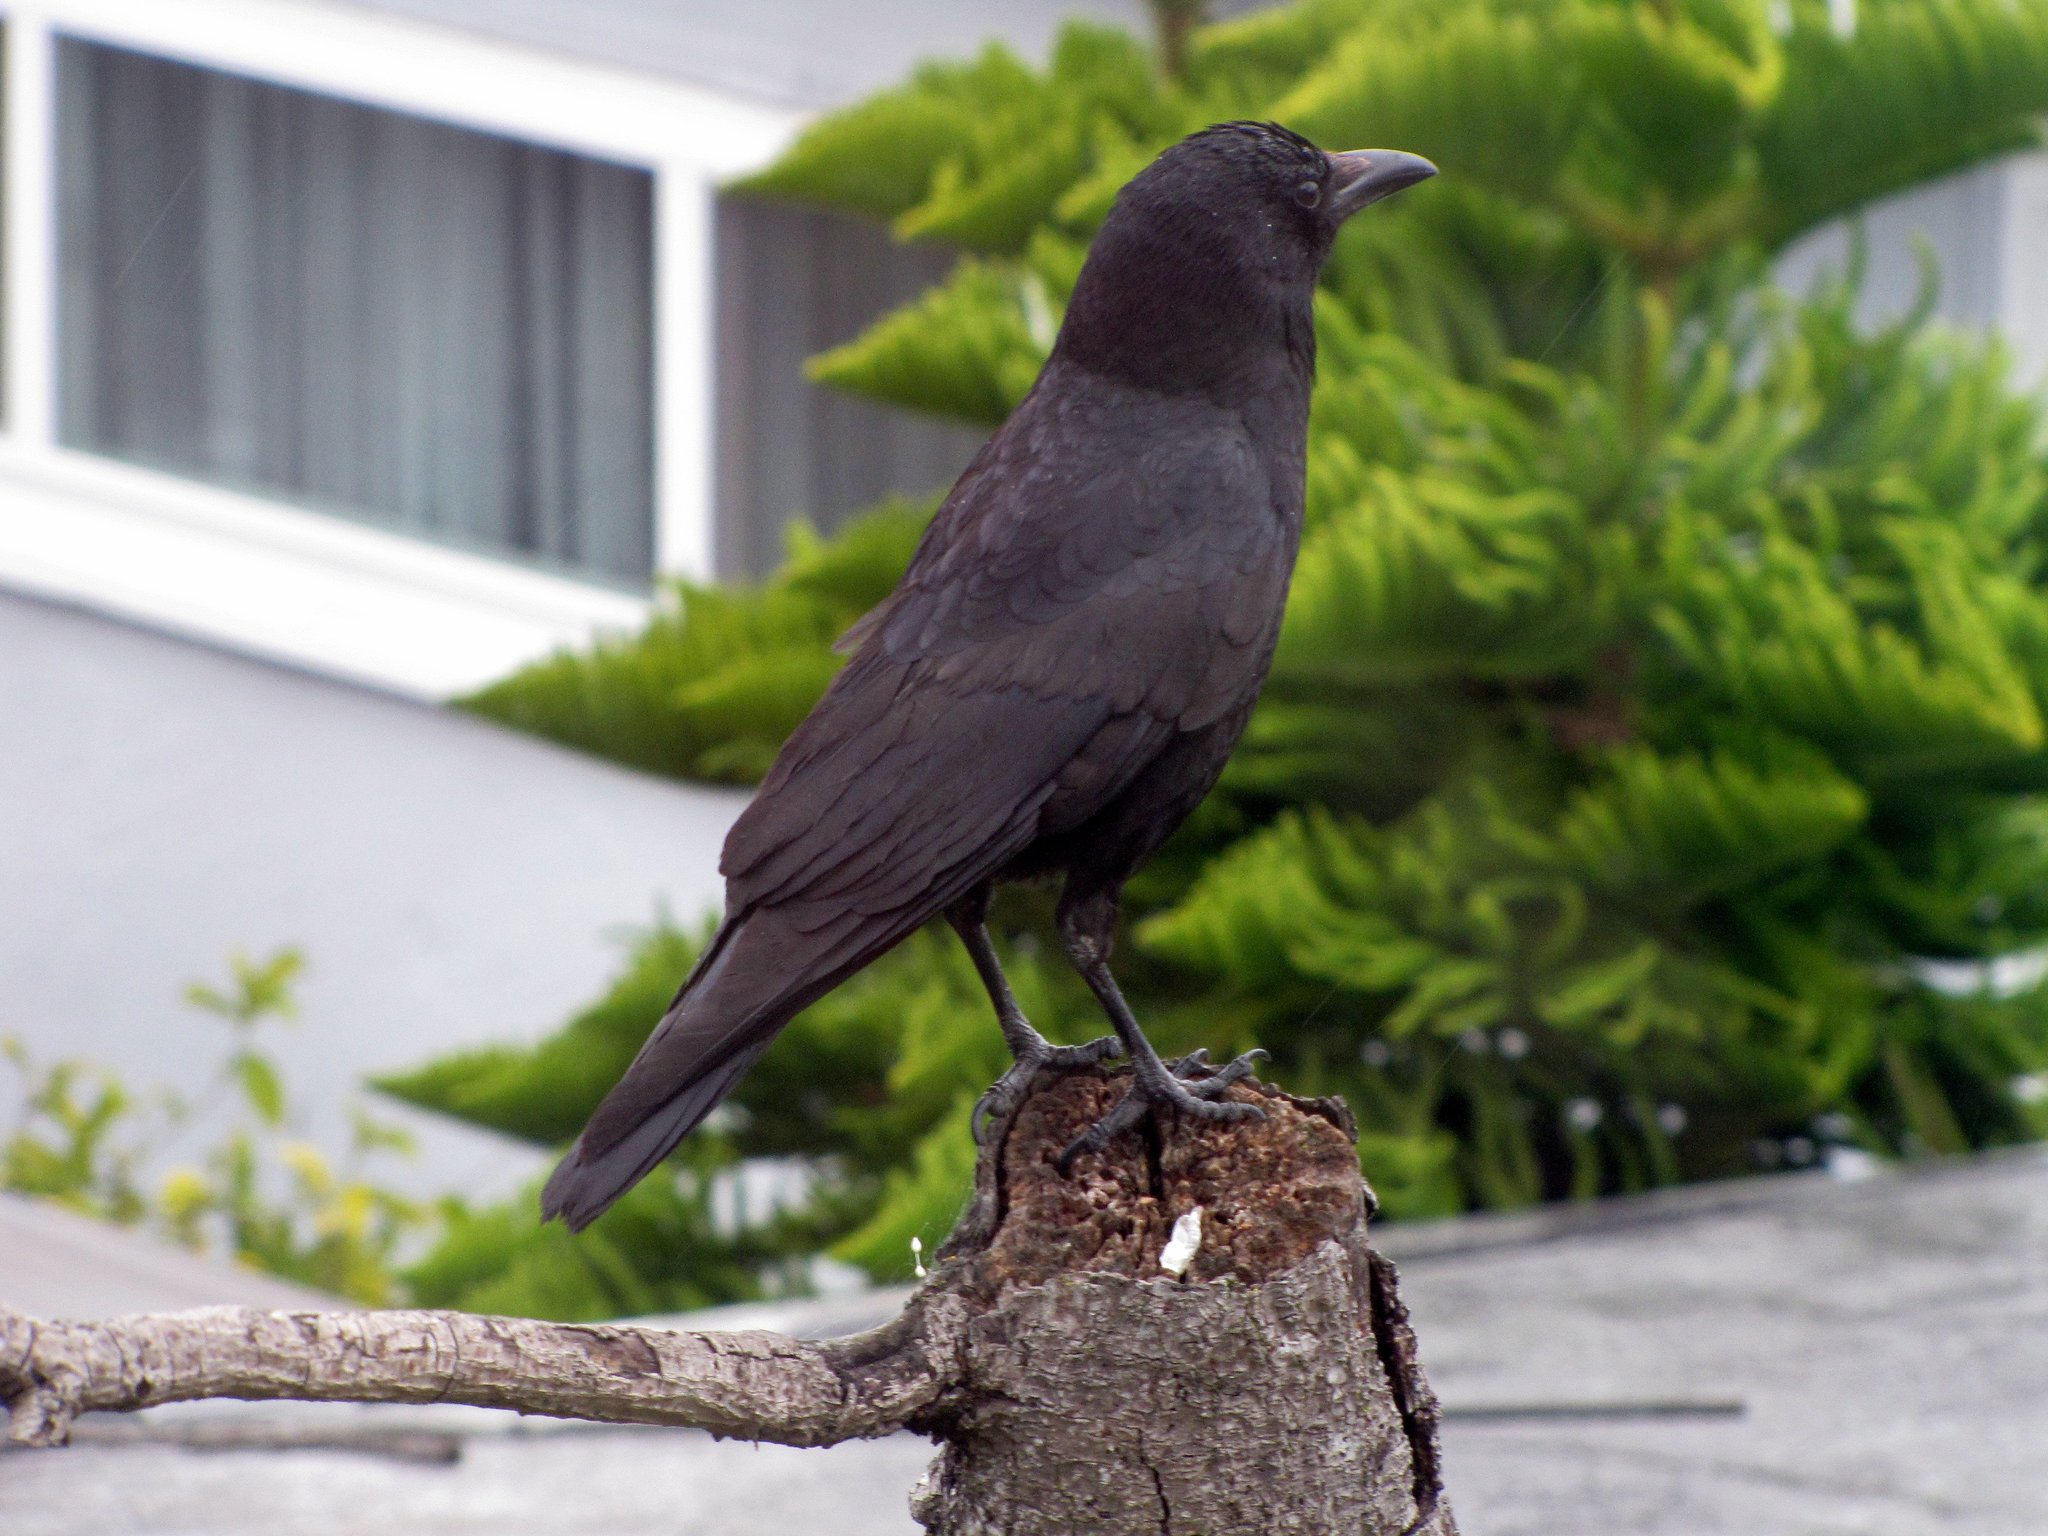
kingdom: Animalia
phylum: Chordata
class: Aves
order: Passeriformes
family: Corvidae
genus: Corvus
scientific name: Corvus brachyrhynchos
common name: American crow
